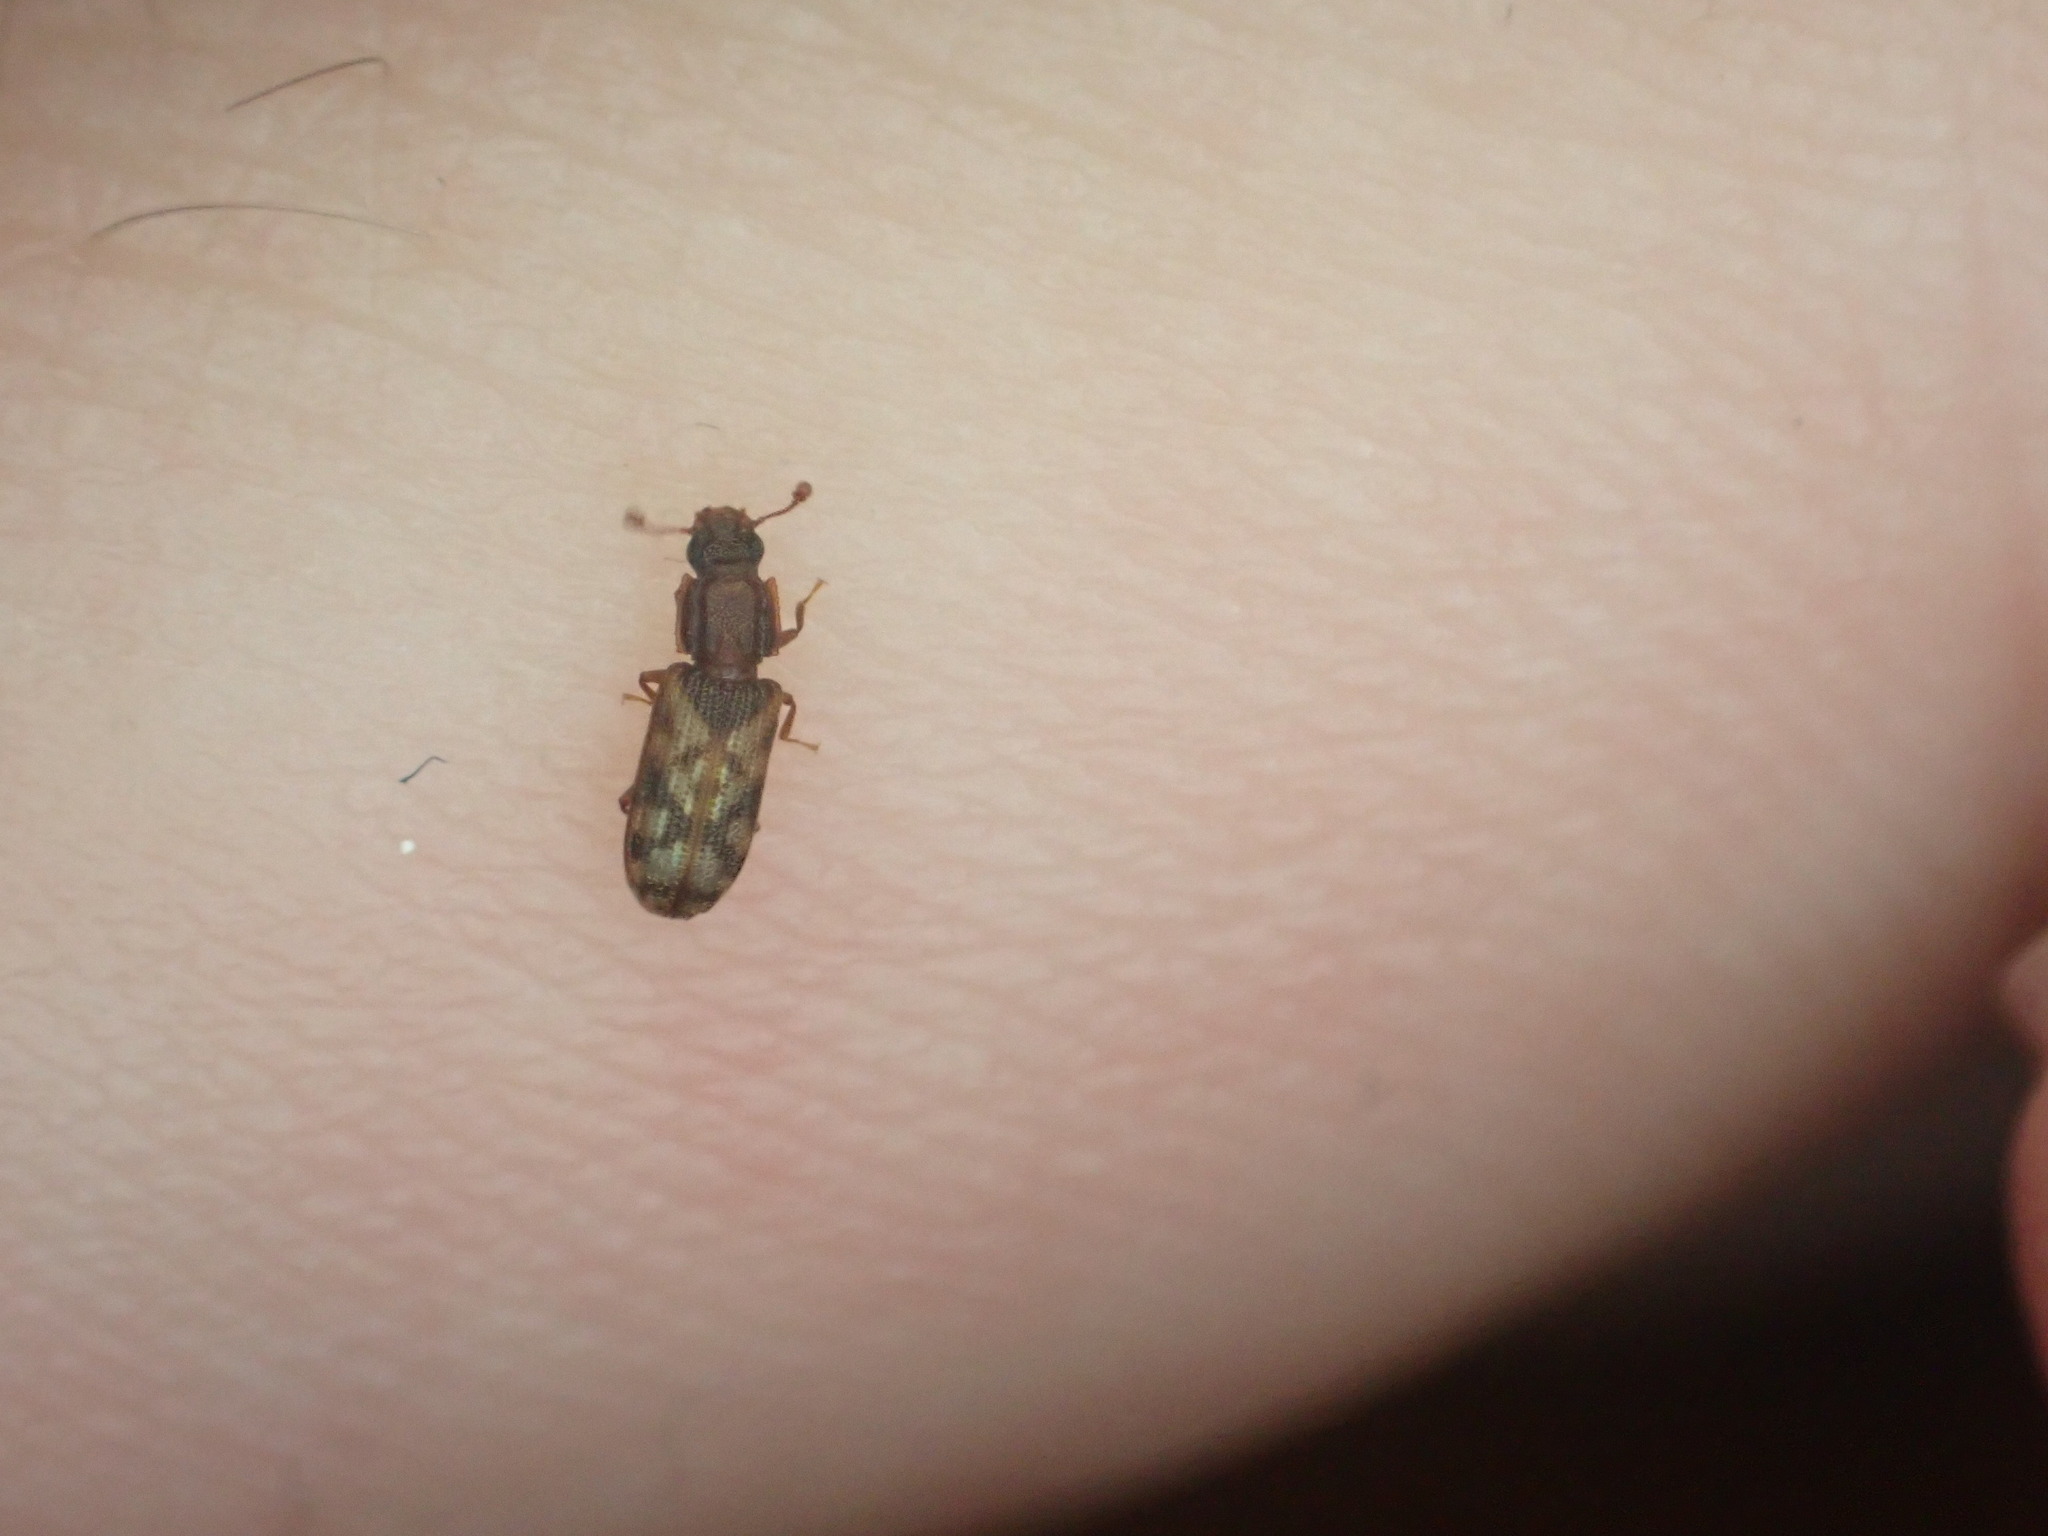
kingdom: Animalia
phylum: Arthropoda
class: Insecta
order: Coleoptera
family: Zopheridae
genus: Bitoma
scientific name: Bitoma insularis
